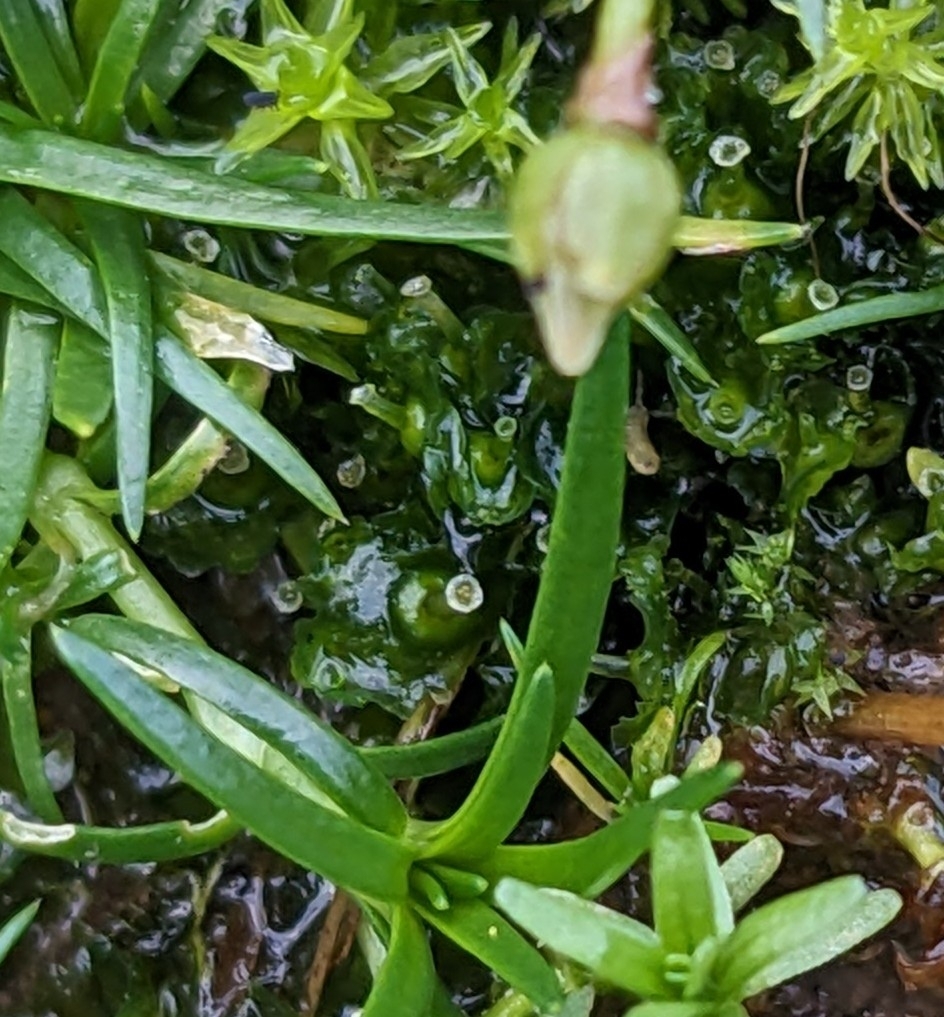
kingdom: Plantae
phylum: Marchantiophyta
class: Marchantiopsida
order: Blasiales
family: Blasiaceae
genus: Blasia
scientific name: Blasia pusilla
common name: Common kettlewort
